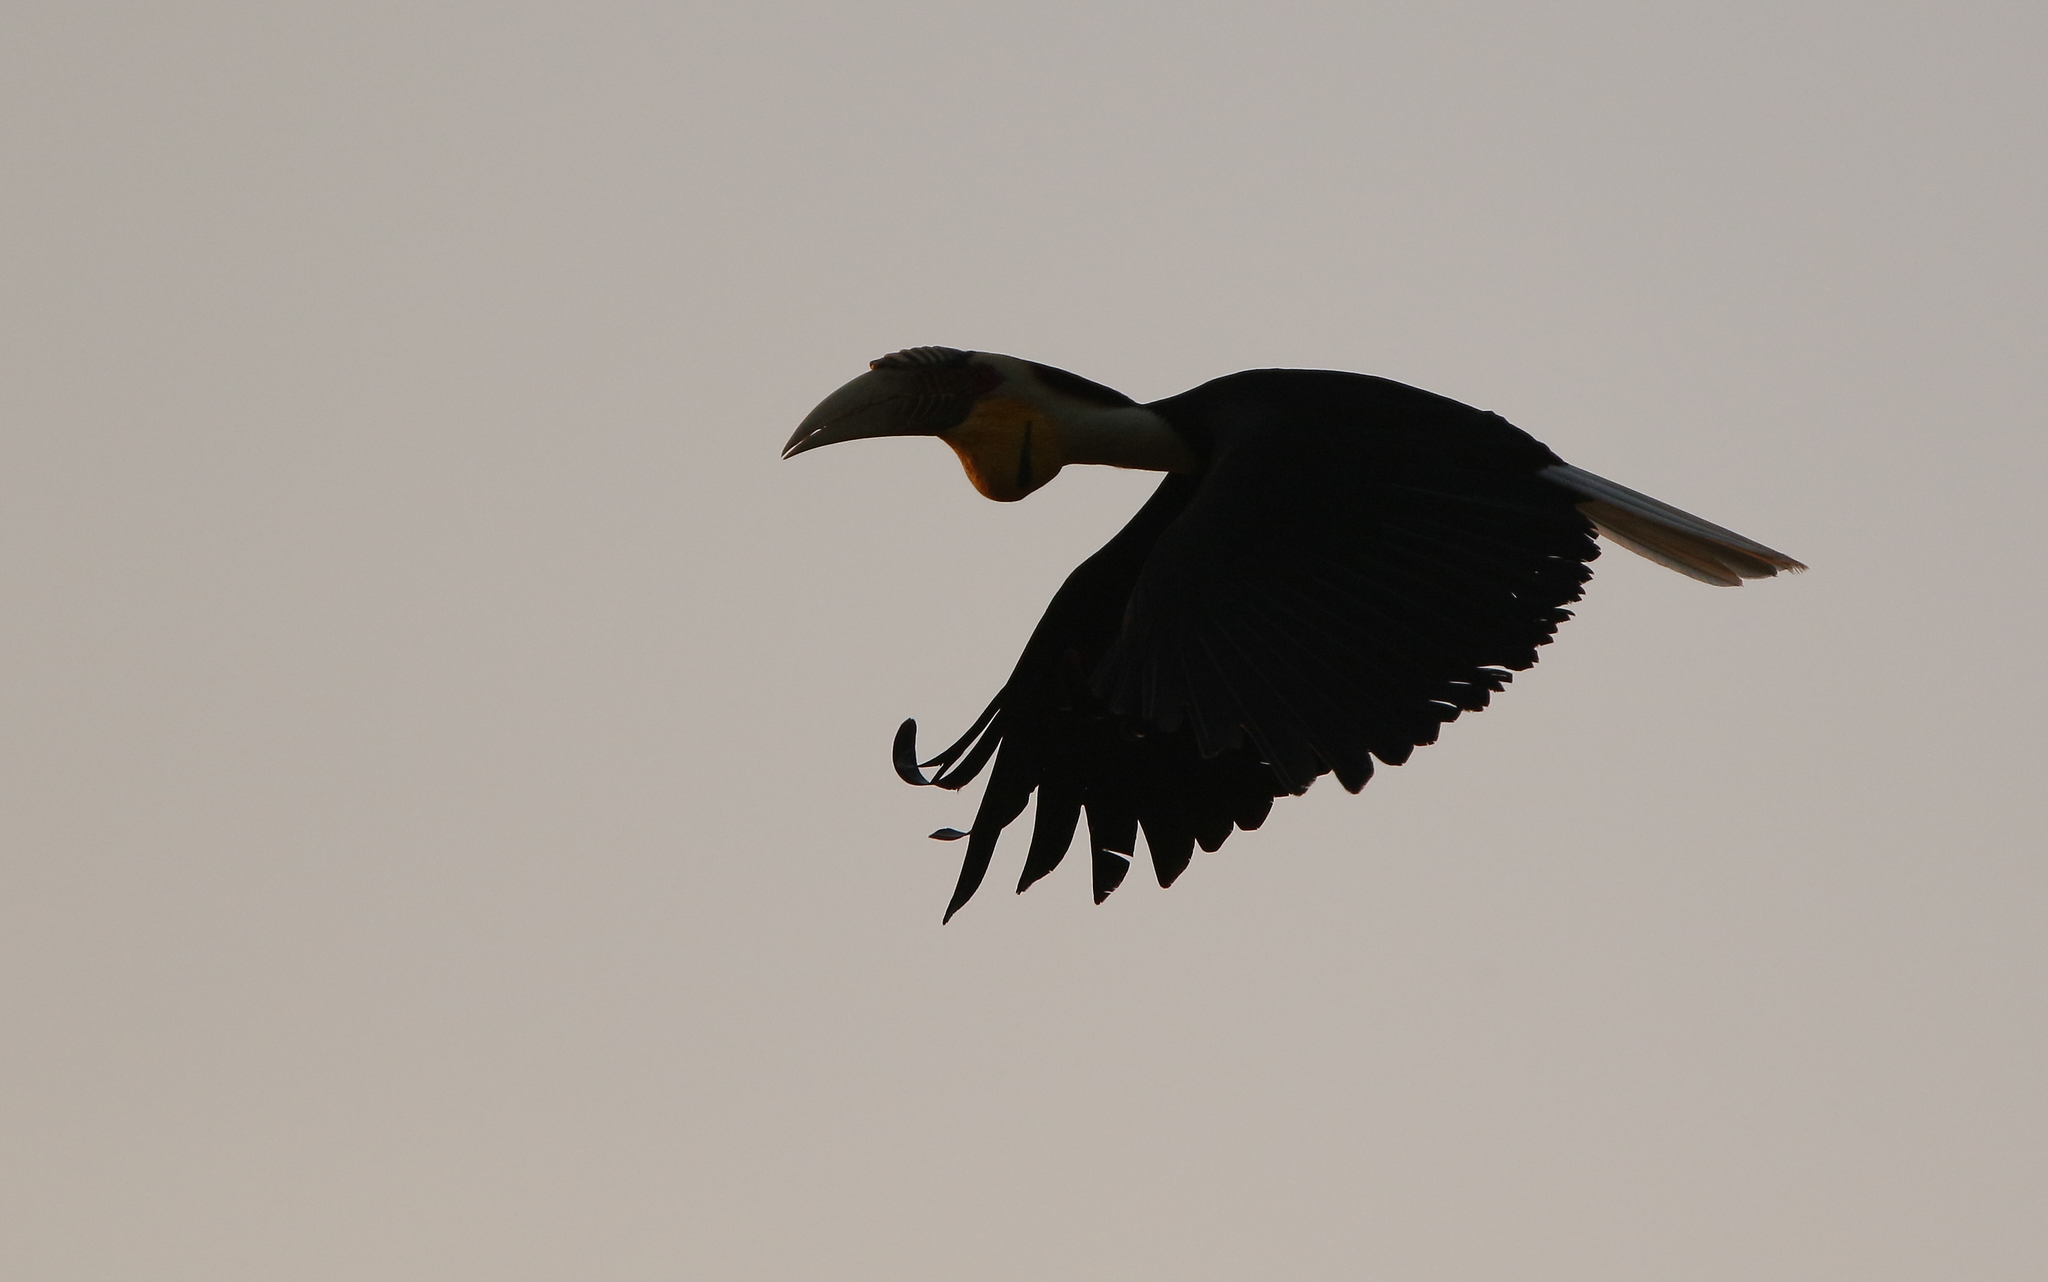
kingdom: Animalia
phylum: Chordata
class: Aves
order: Bucerotiformes
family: Bucerotidae
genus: Rhyticeros
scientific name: Rhyticeros undulatus
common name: Wreathed hornbill
